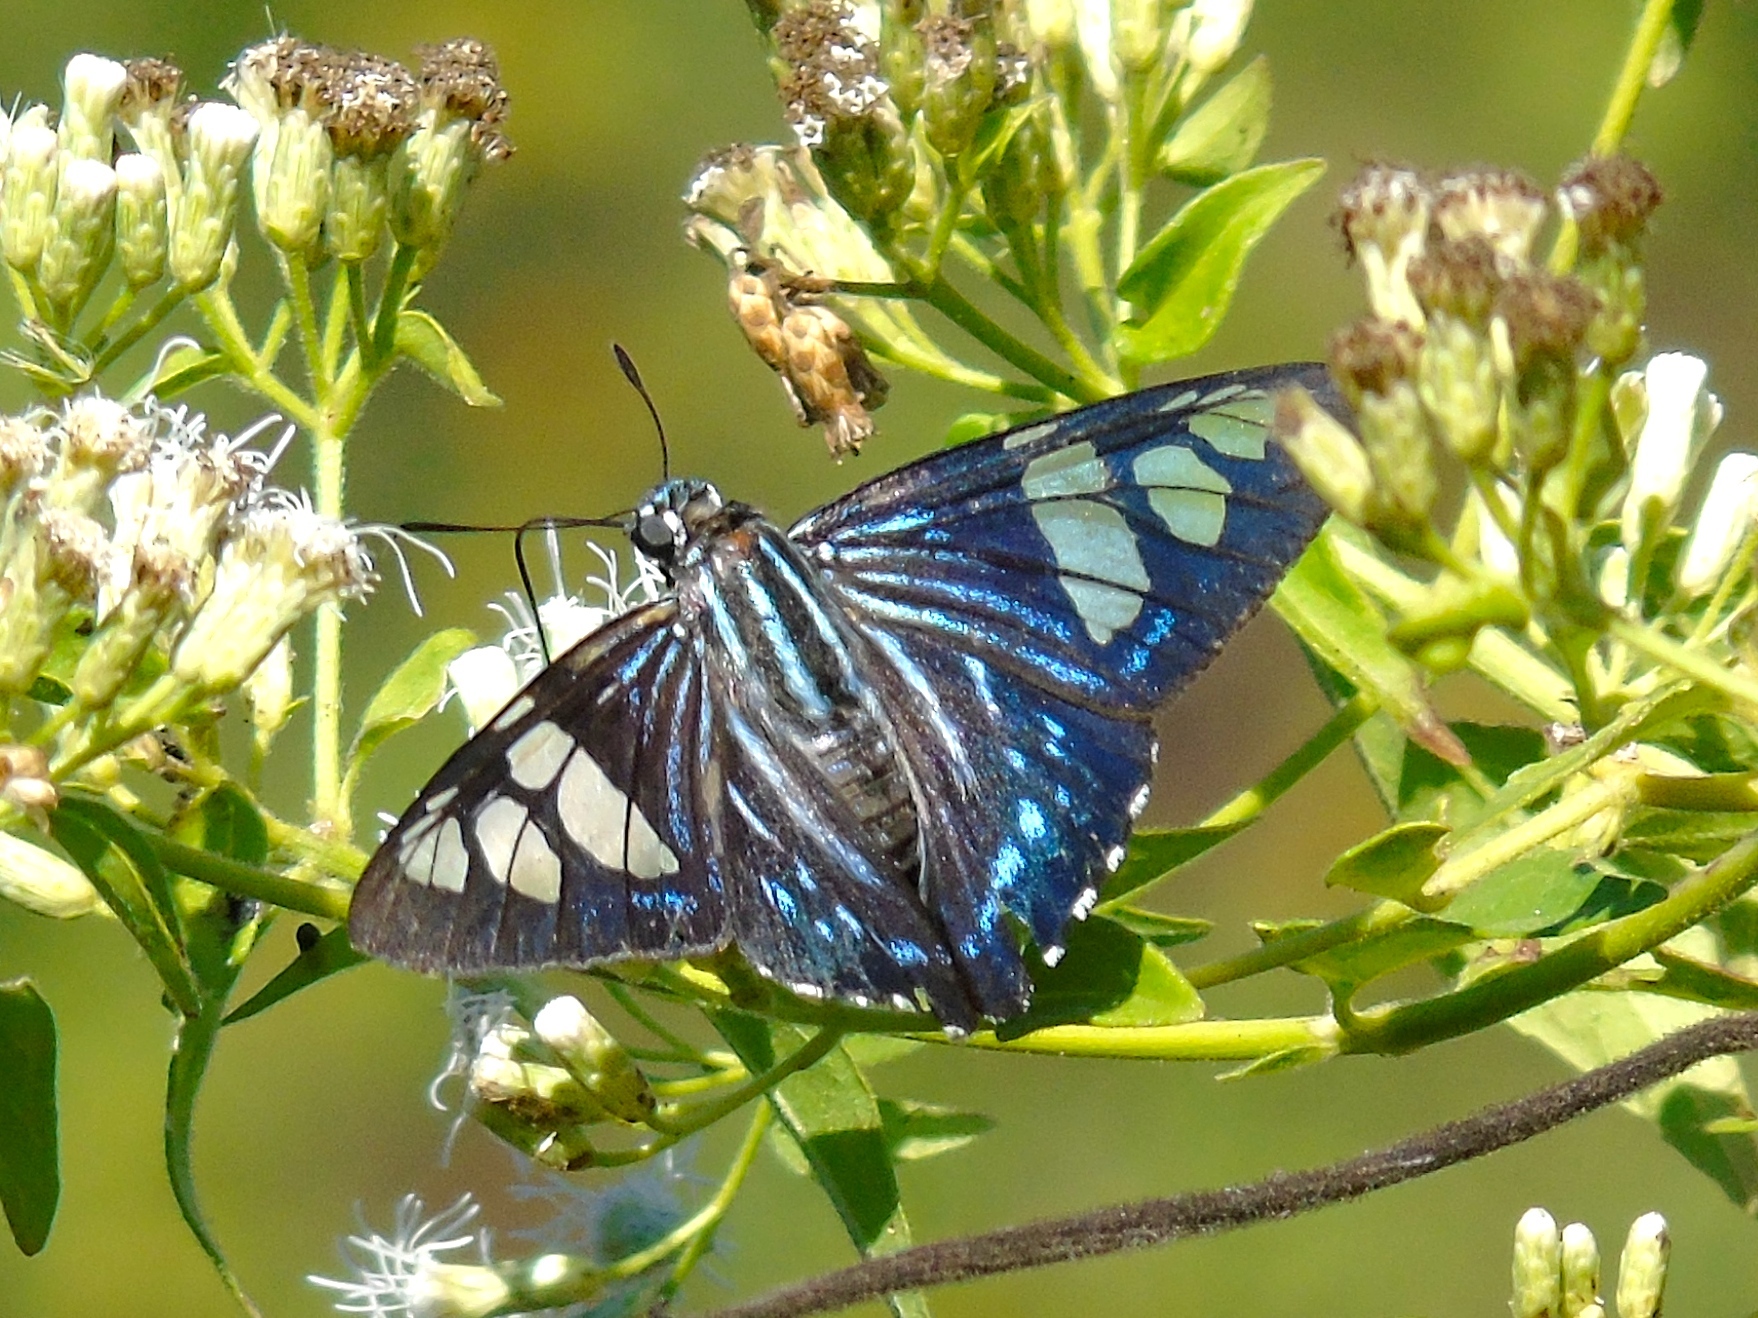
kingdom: Animalia
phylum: Arthropoda
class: Insecta
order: Lepidoptera
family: Hesperiidae
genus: Phocides
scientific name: Phocides pigmalion
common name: Mangrove skipper
